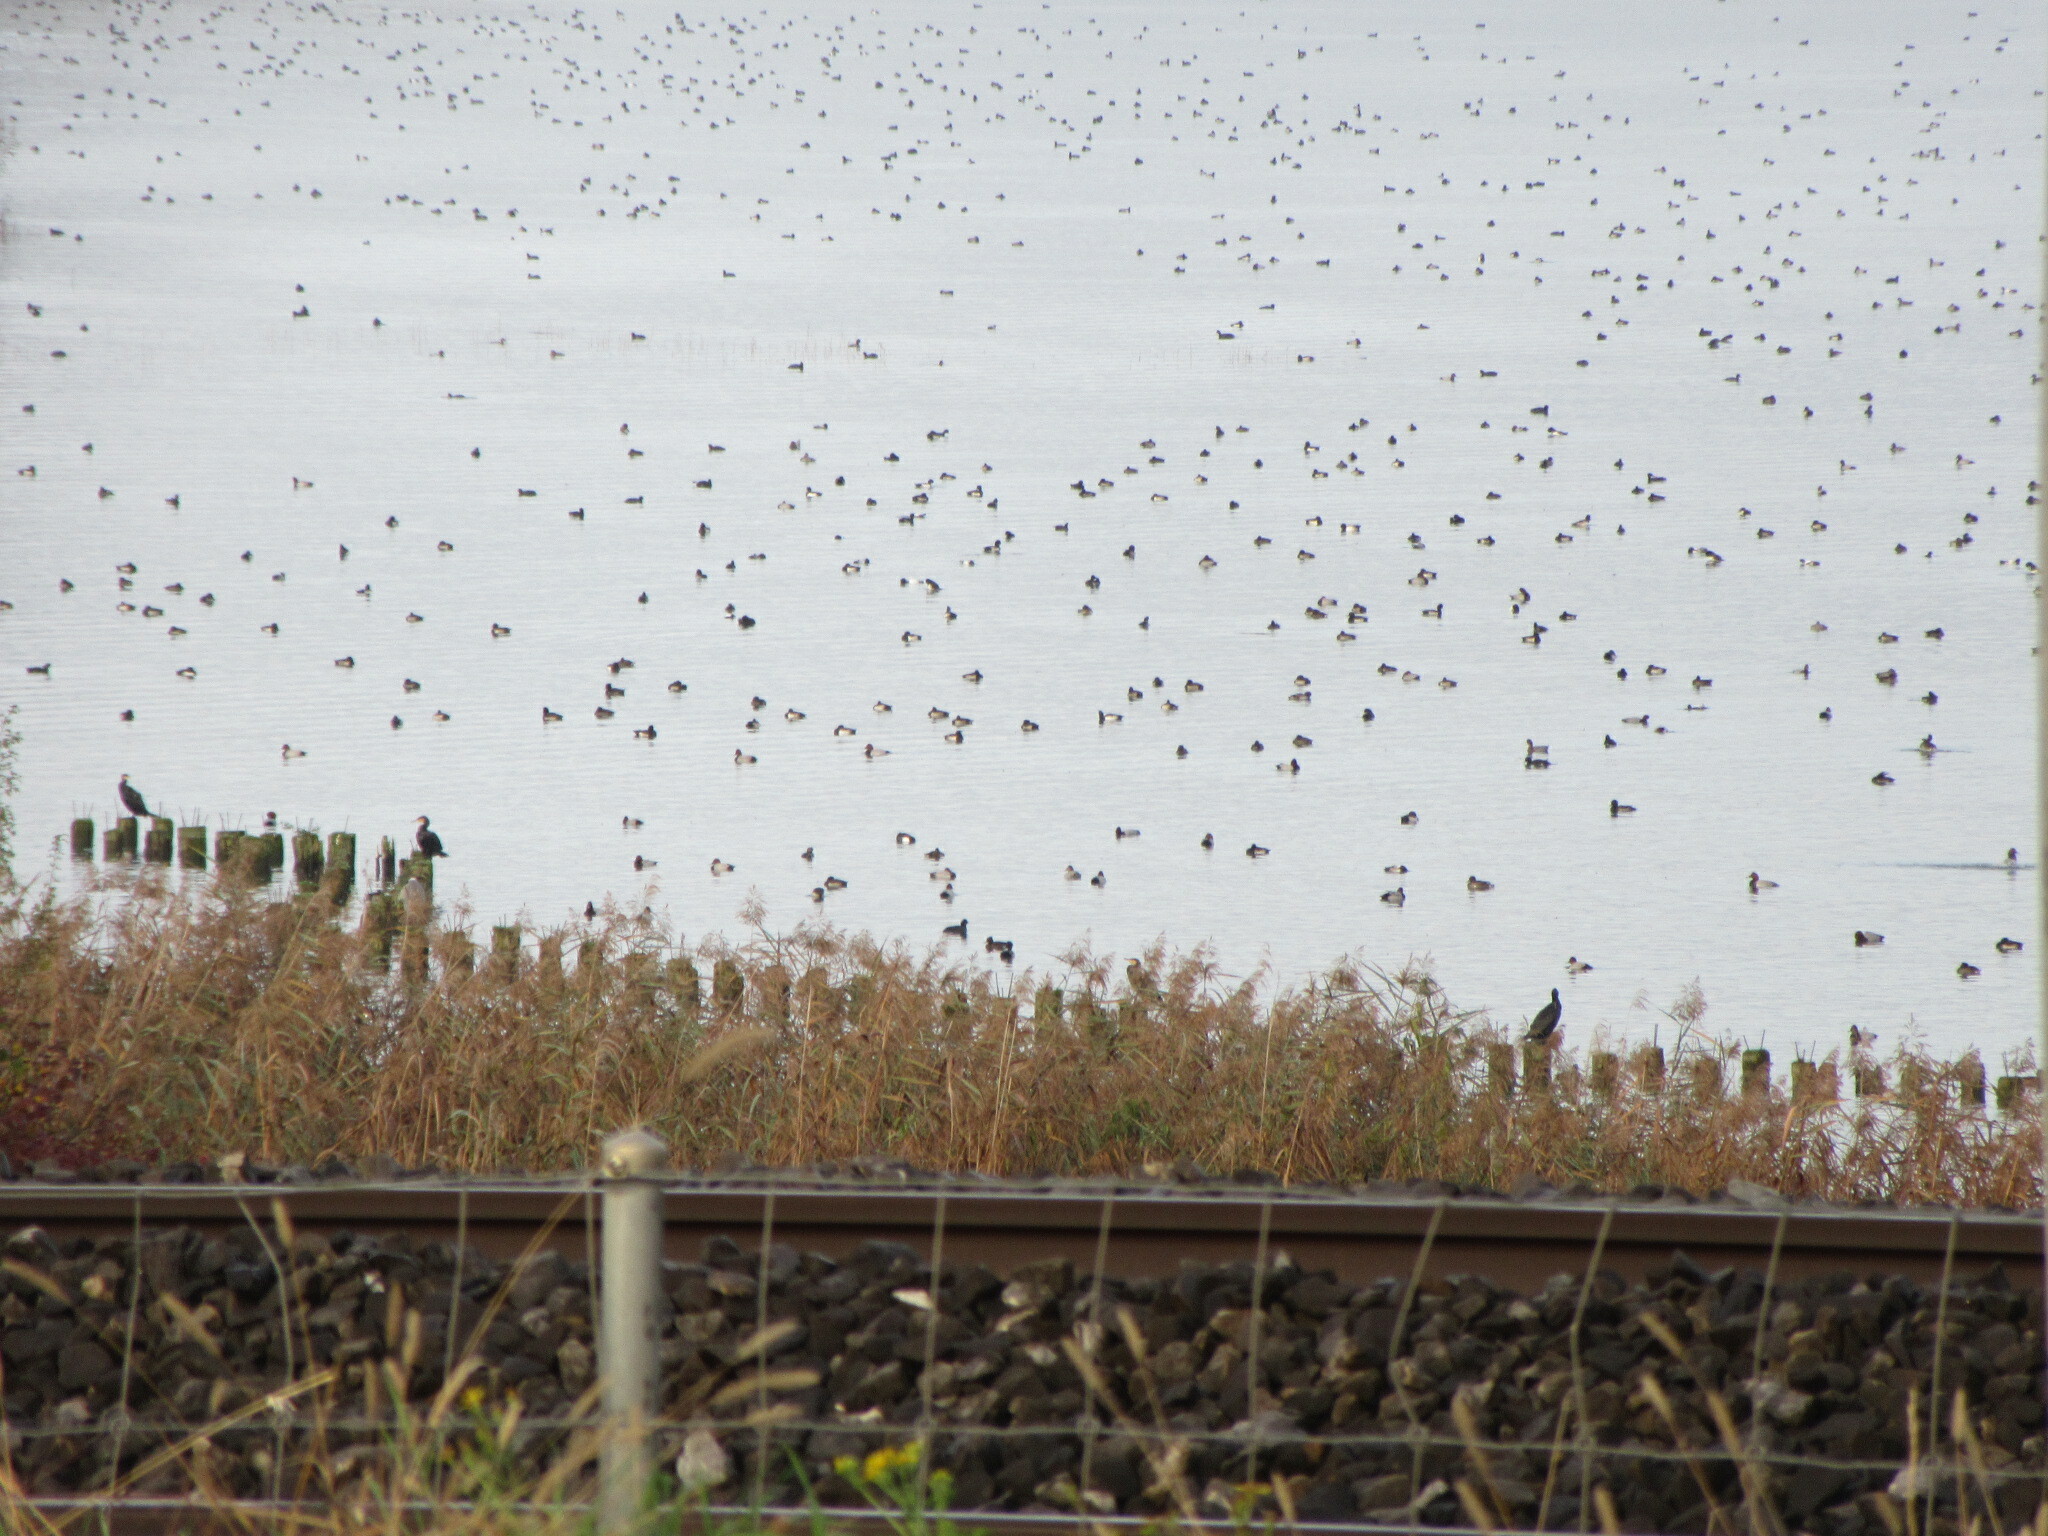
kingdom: Animalia
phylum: Chordata
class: Aves
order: Anseriformes
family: Anatidae
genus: Aythya
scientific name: Aythya ferina
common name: Common pochard
